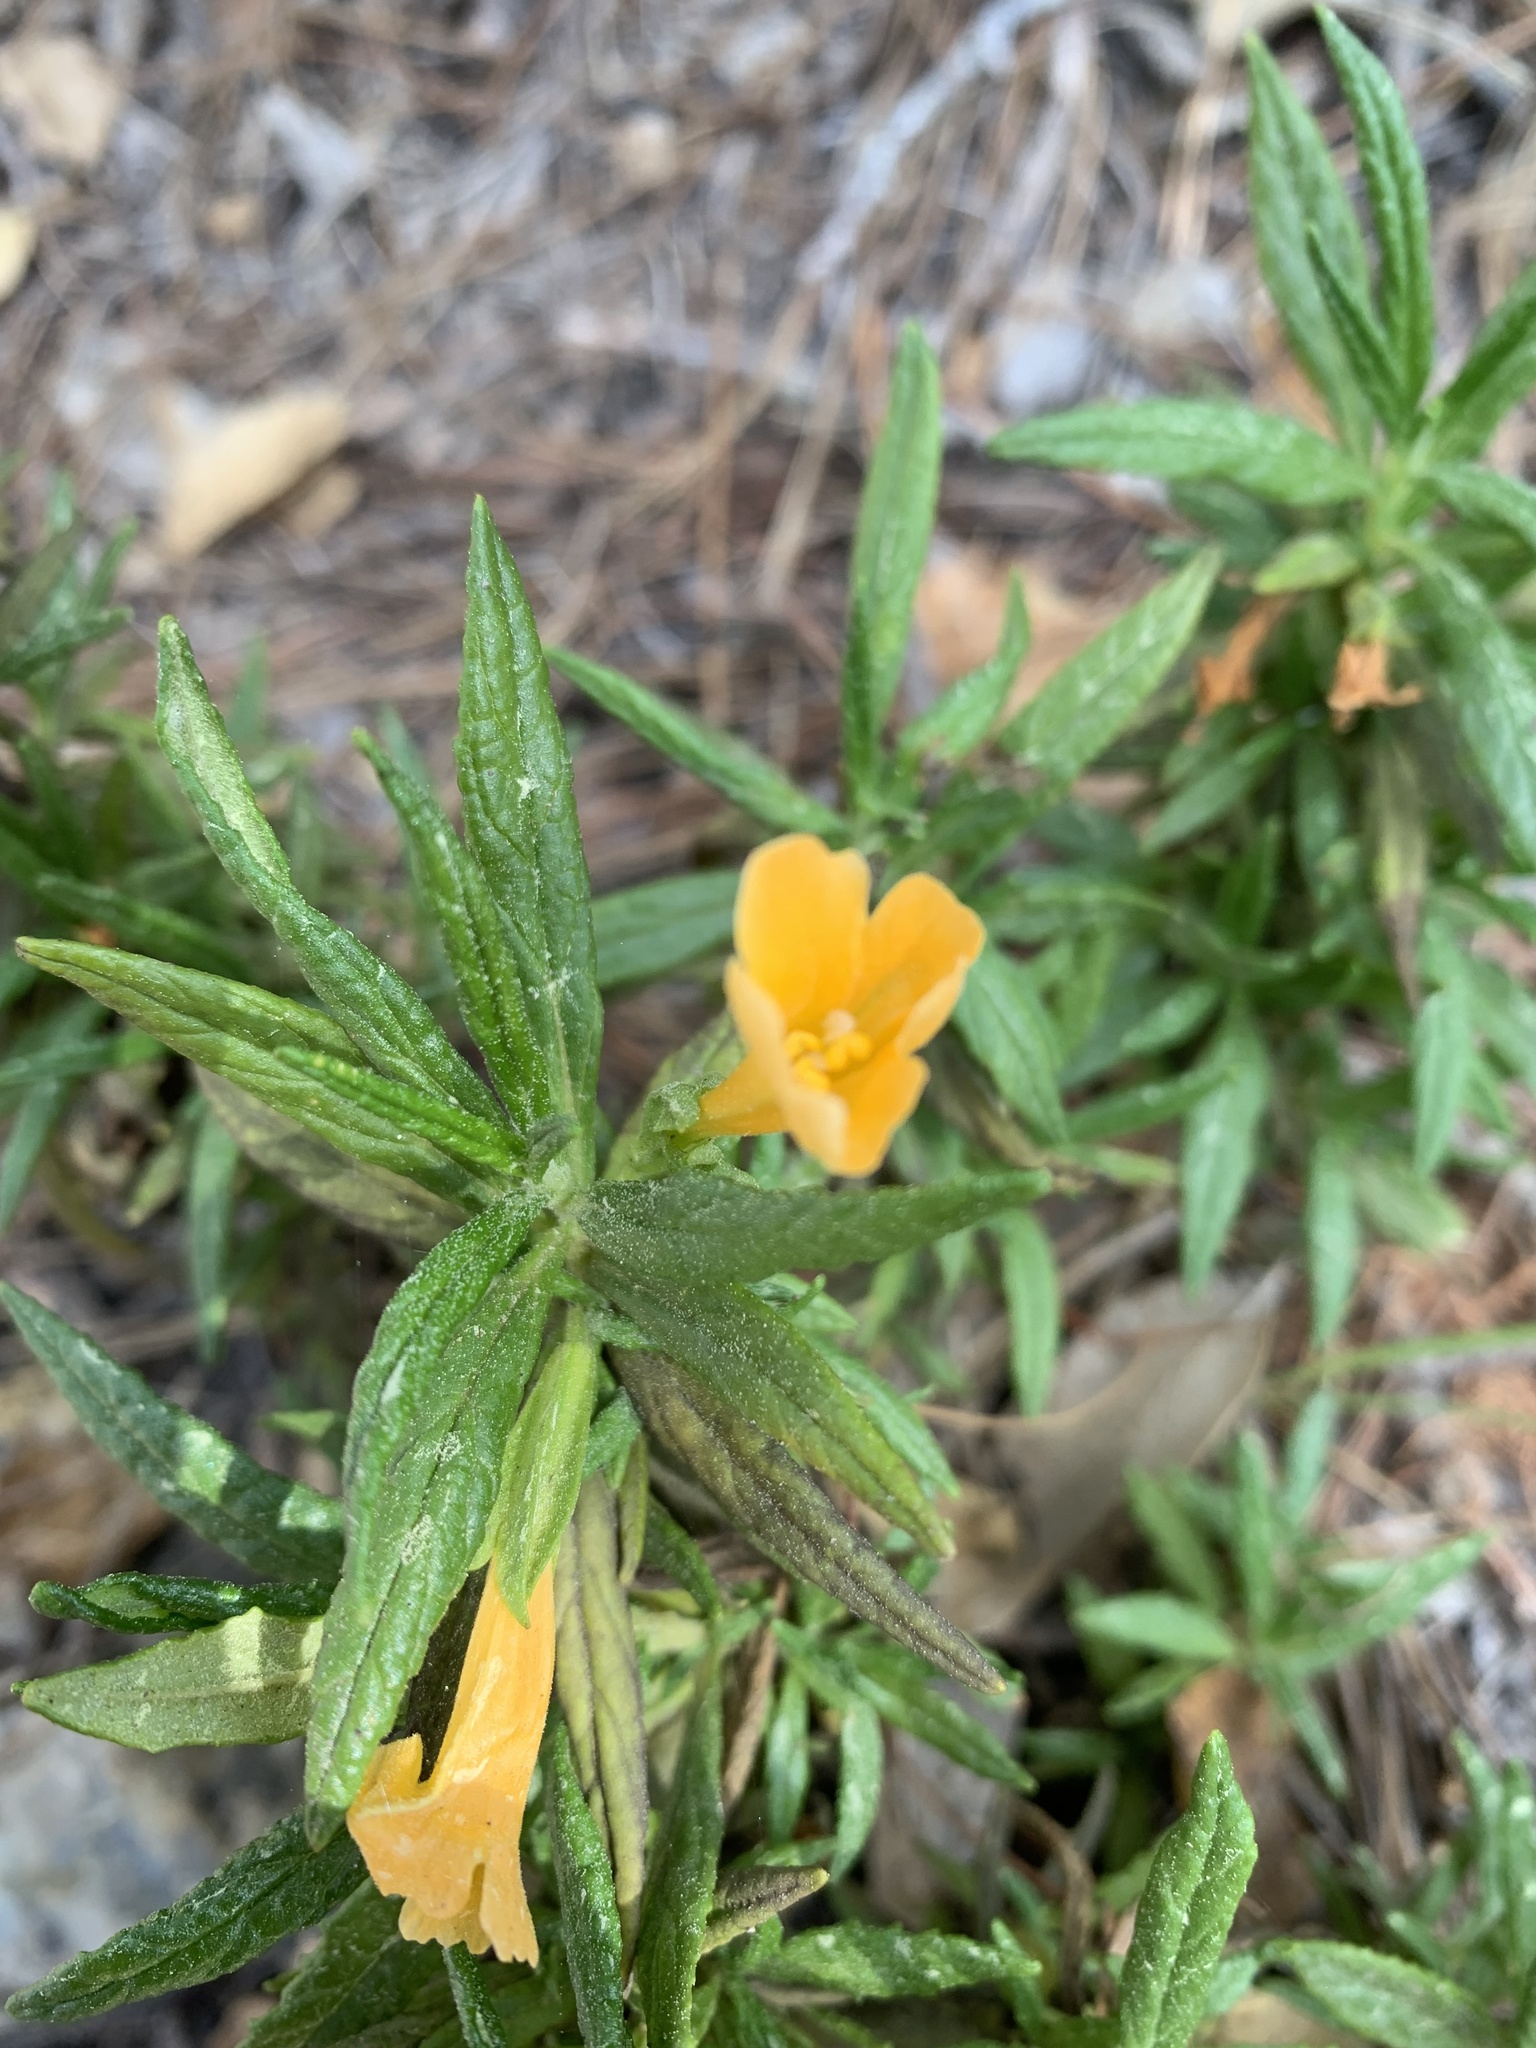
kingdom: Plantae
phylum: Tracheophyta
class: Magnoliopsida
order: Lamiales
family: Phrymaceae
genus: Diplacus
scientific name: Diplacus aurantiacus
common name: Bush monkey-flower
